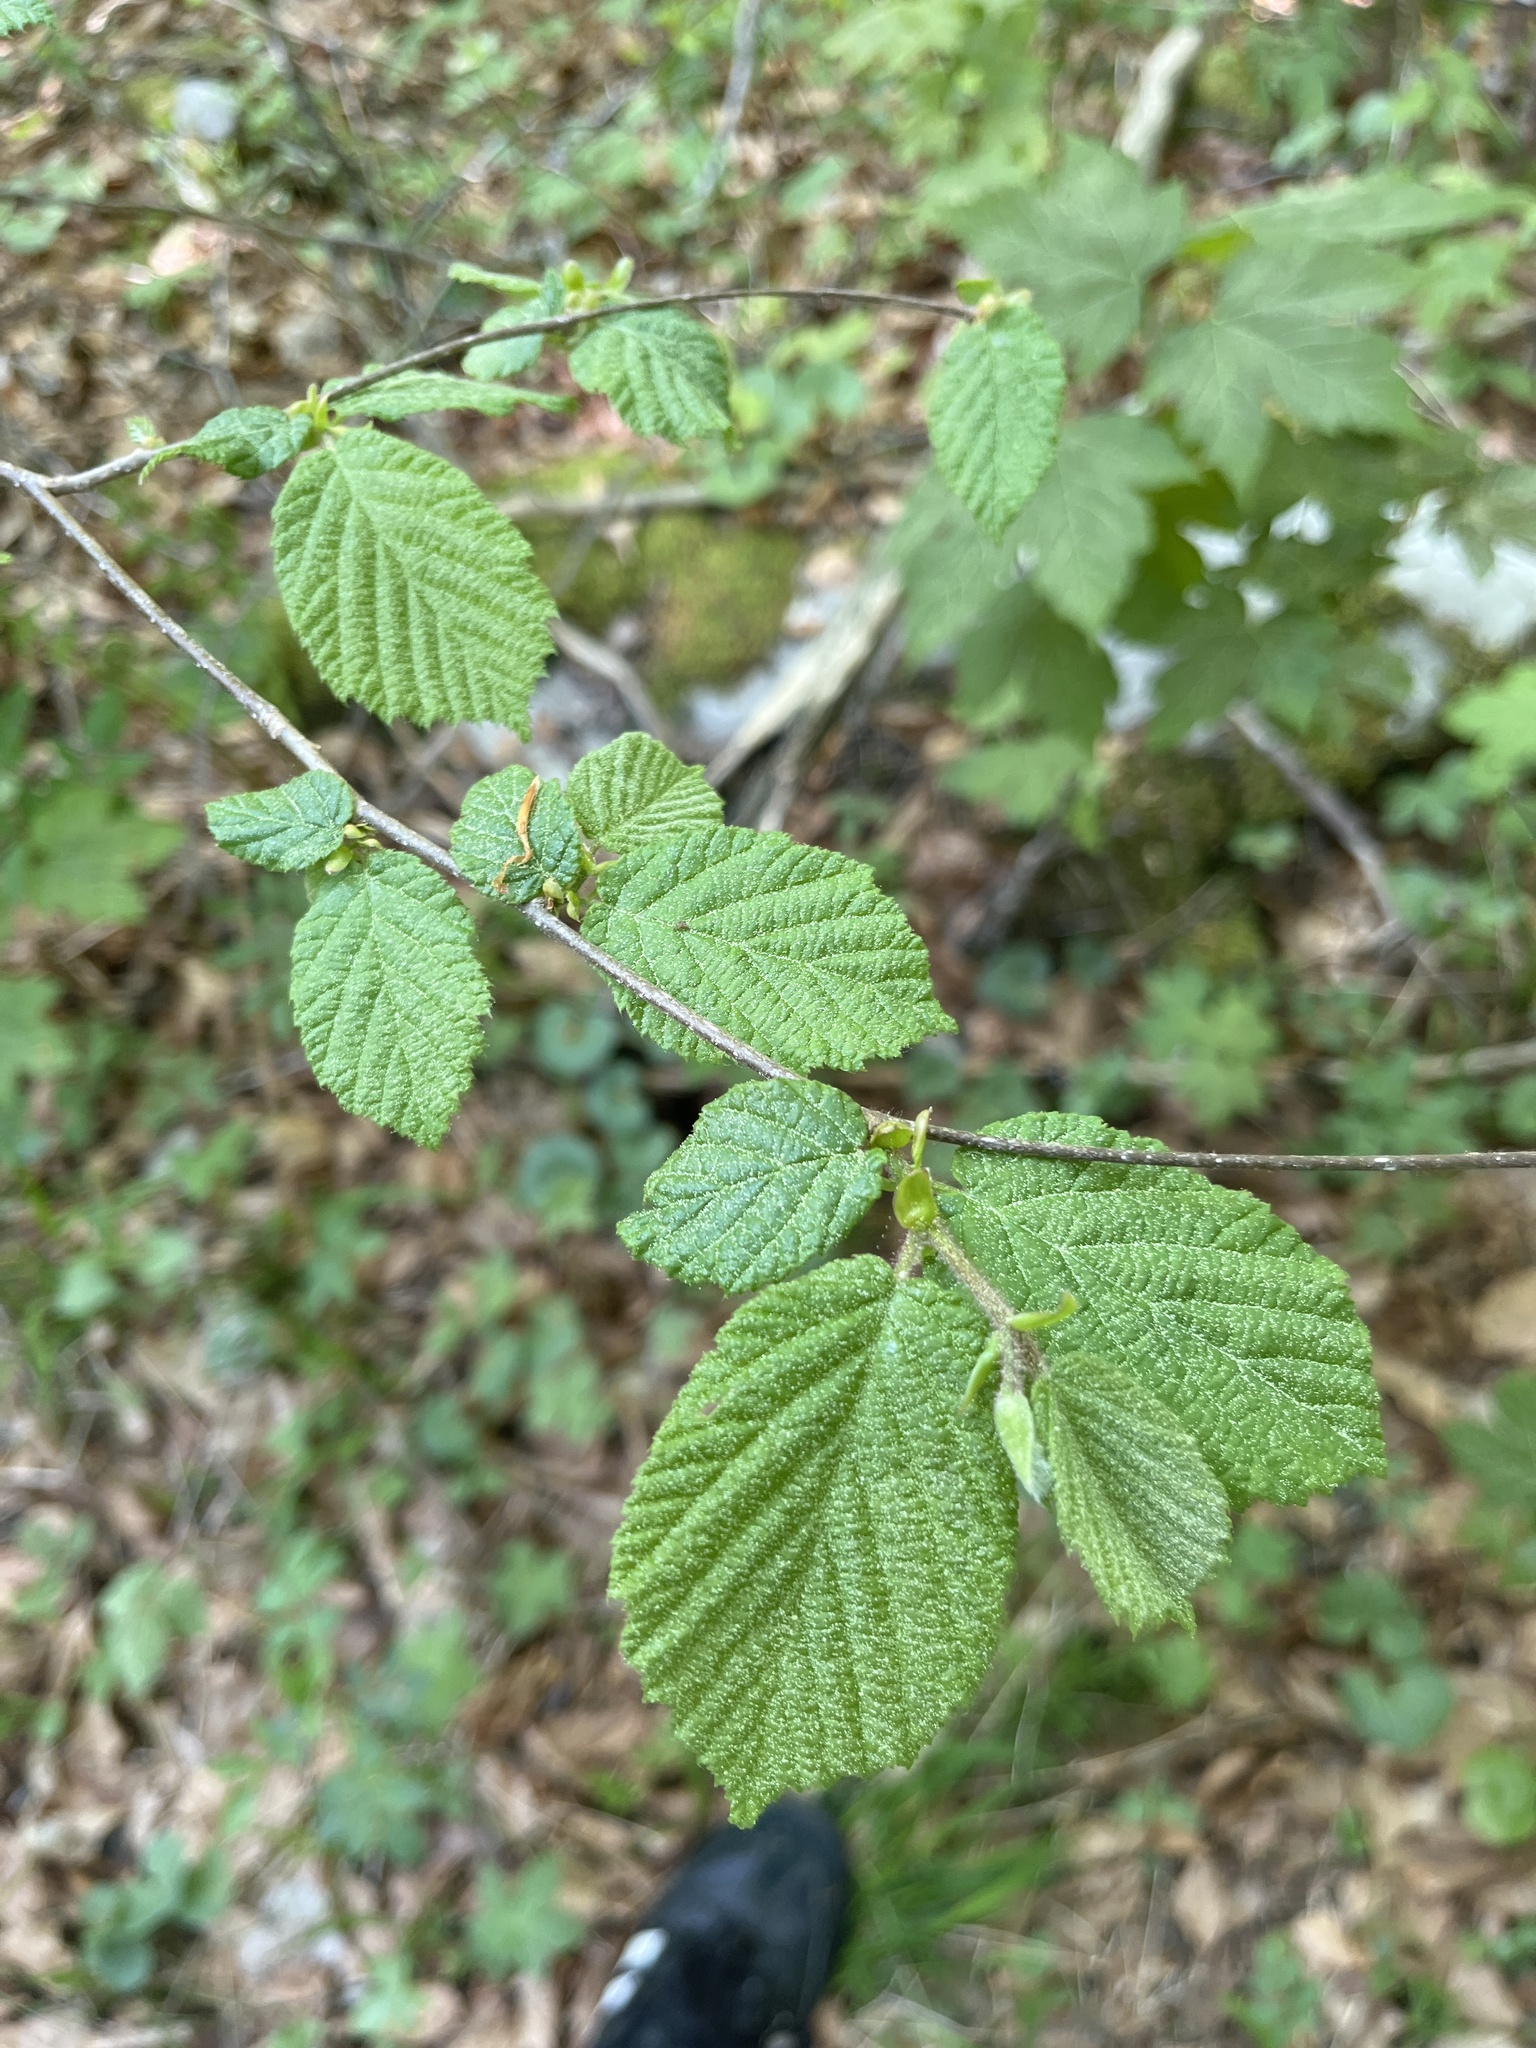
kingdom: Plantae
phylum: Tracheophyta
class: Magnoliopsida
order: Fagales
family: Betulaceae
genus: Corylus
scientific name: Corylus avellana
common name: European hazel
